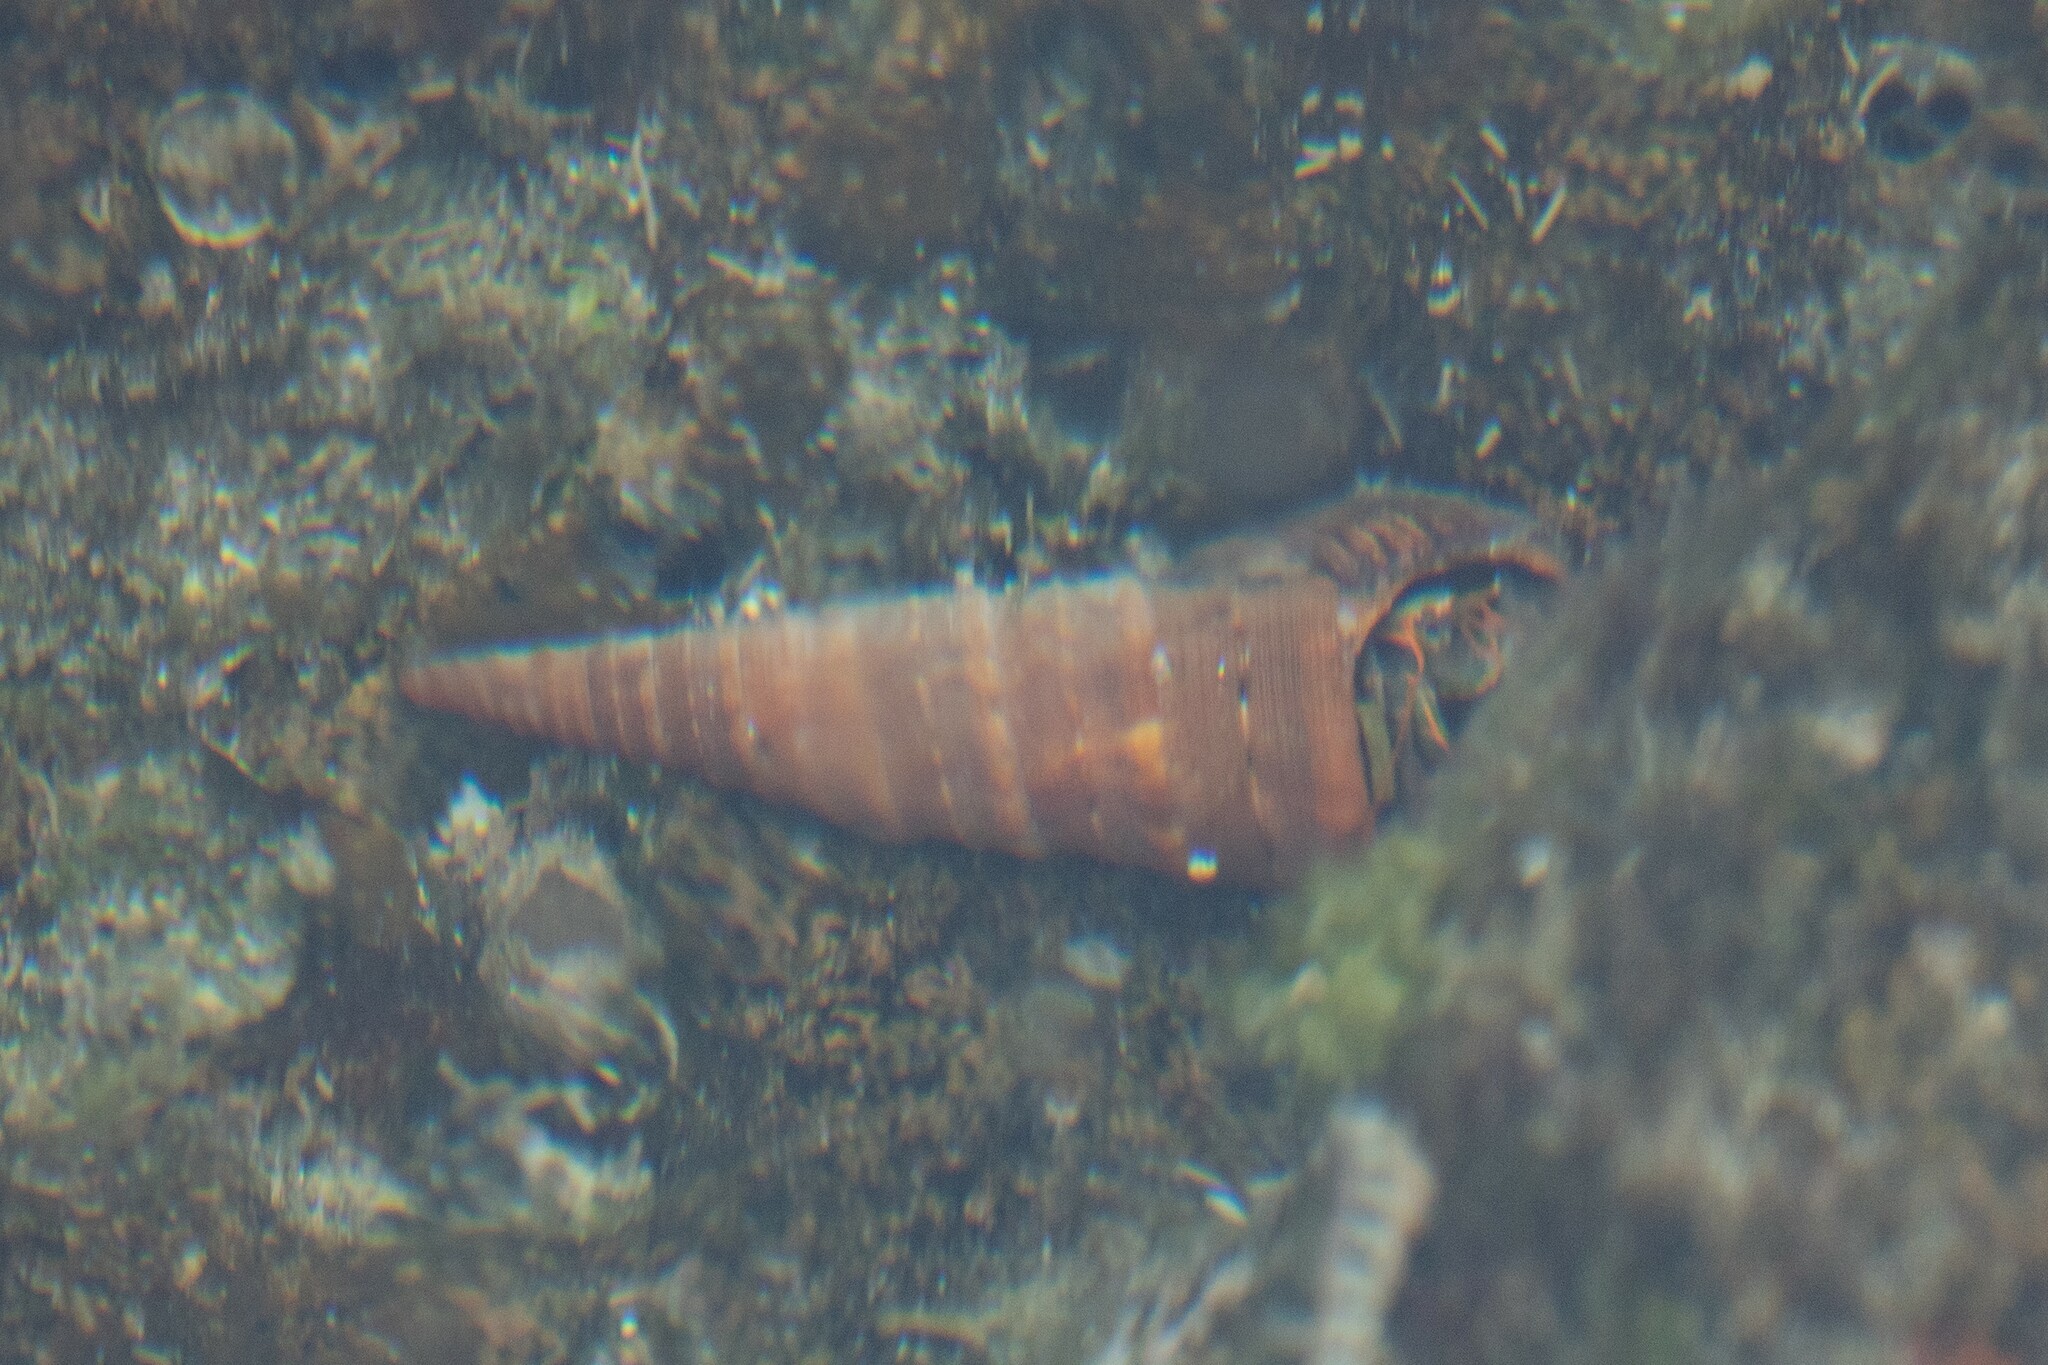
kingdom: Animalia
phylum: Arthropoda
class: Malacostraca
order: Decapoda
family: Diogenidae
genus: Calcinus
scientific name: Calcinus obscurus
